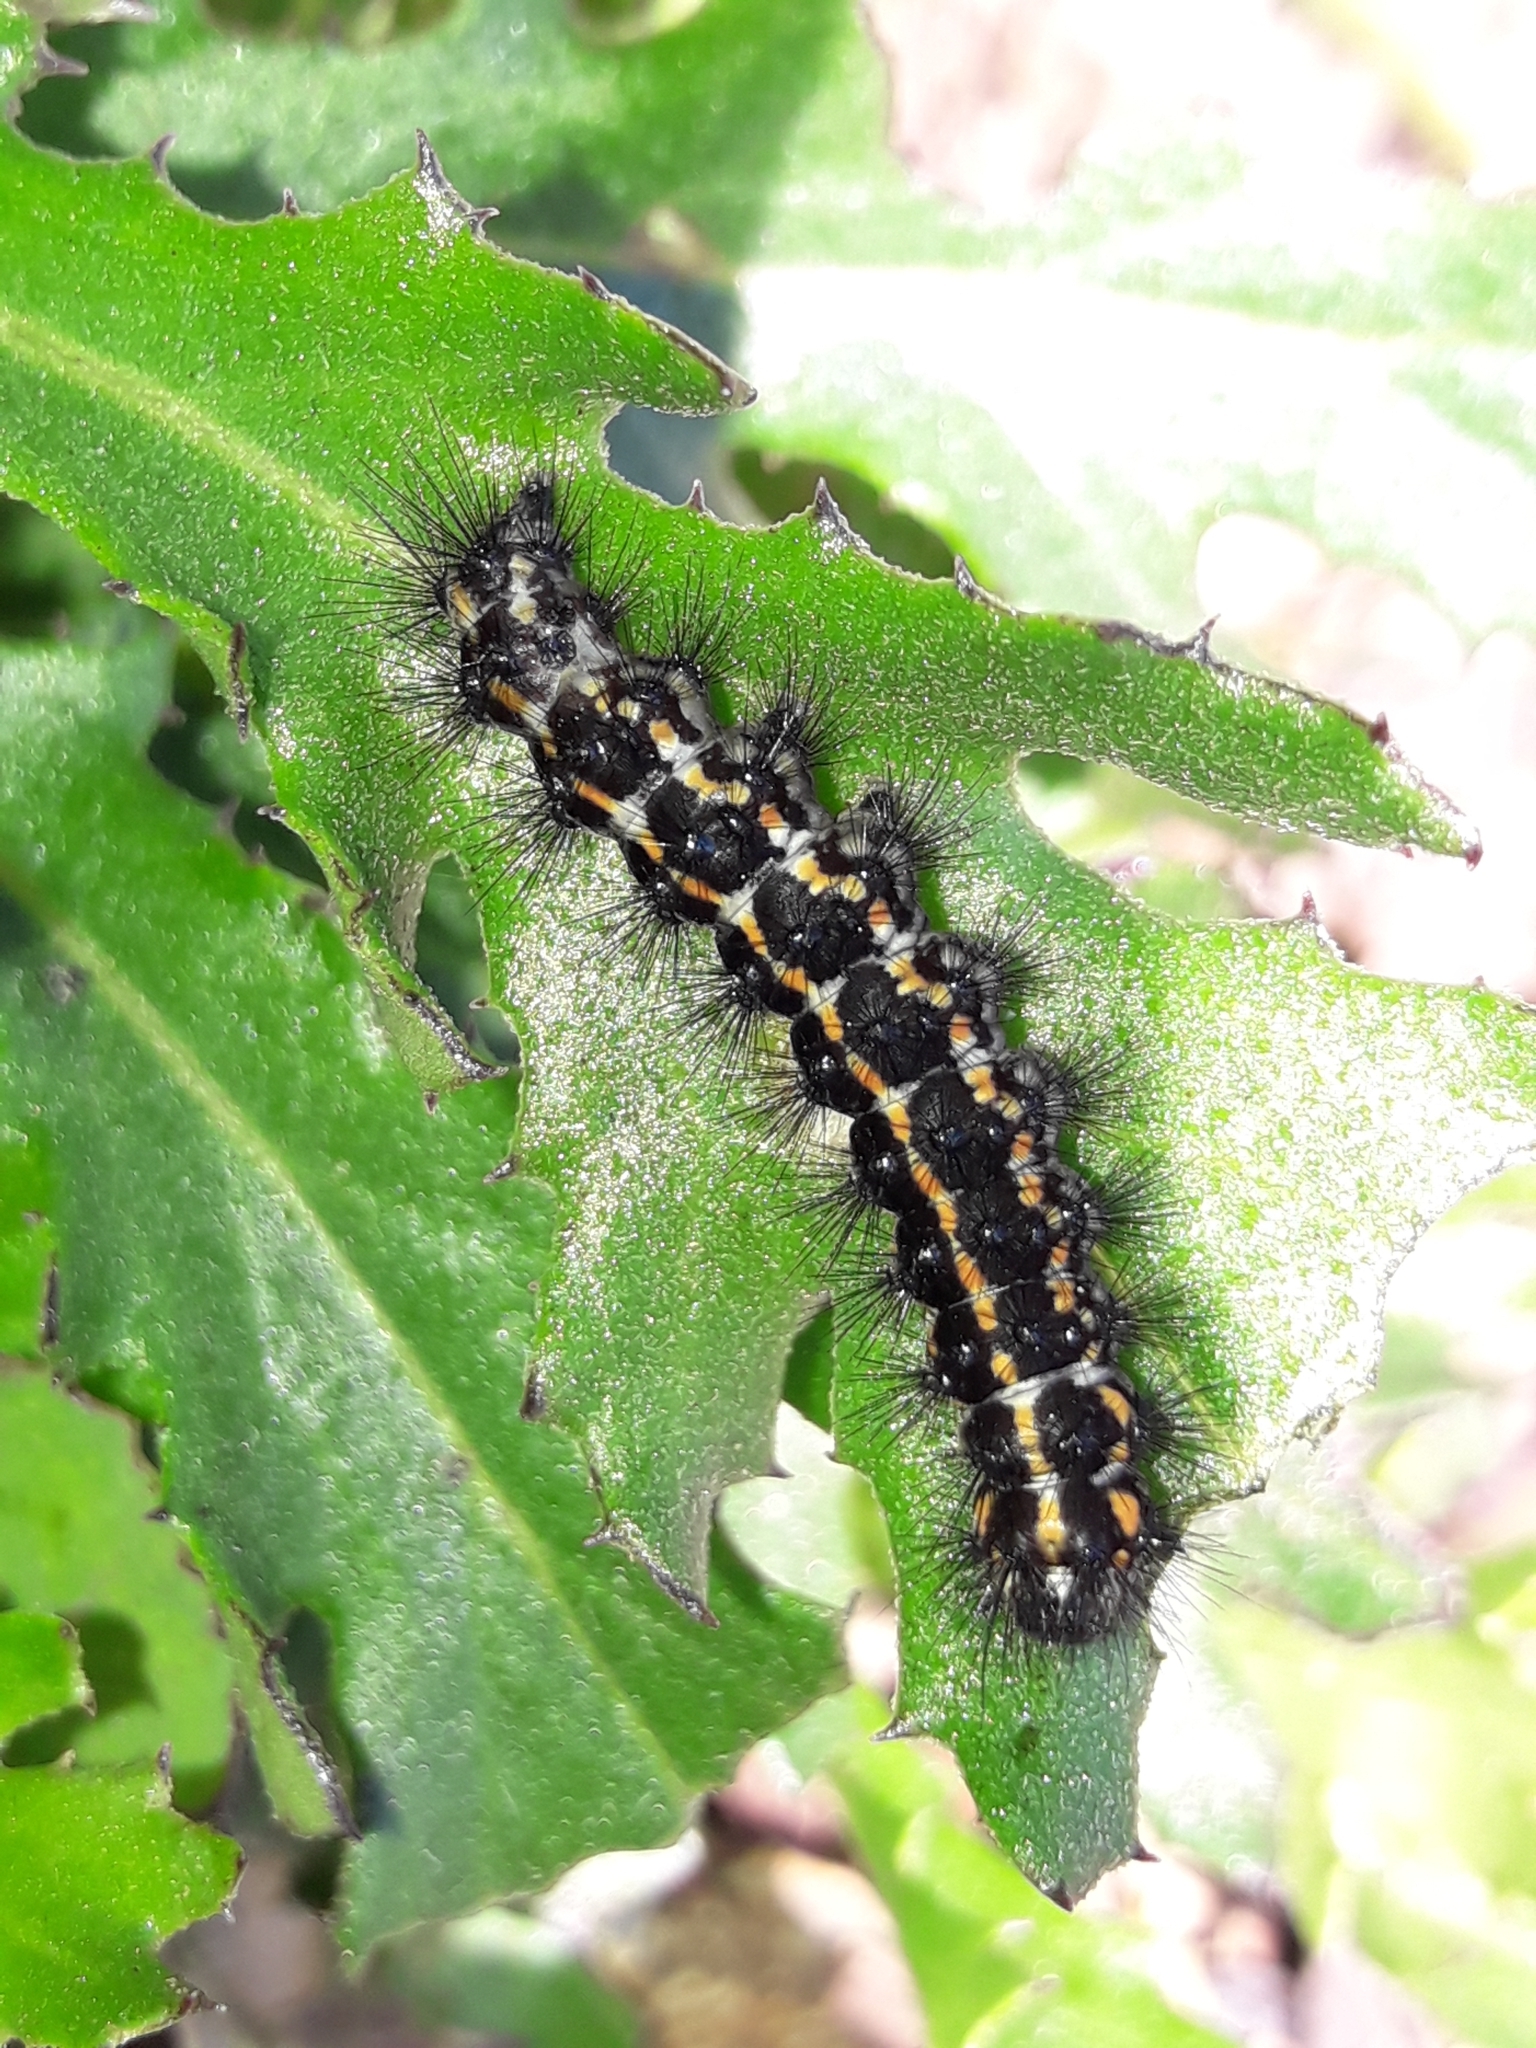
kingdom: Animalia
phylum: Arthropoda
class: Insecta
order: Lepidoptera
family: Erebidae
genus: Nyctemera
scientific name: Nyctemera annulatum
